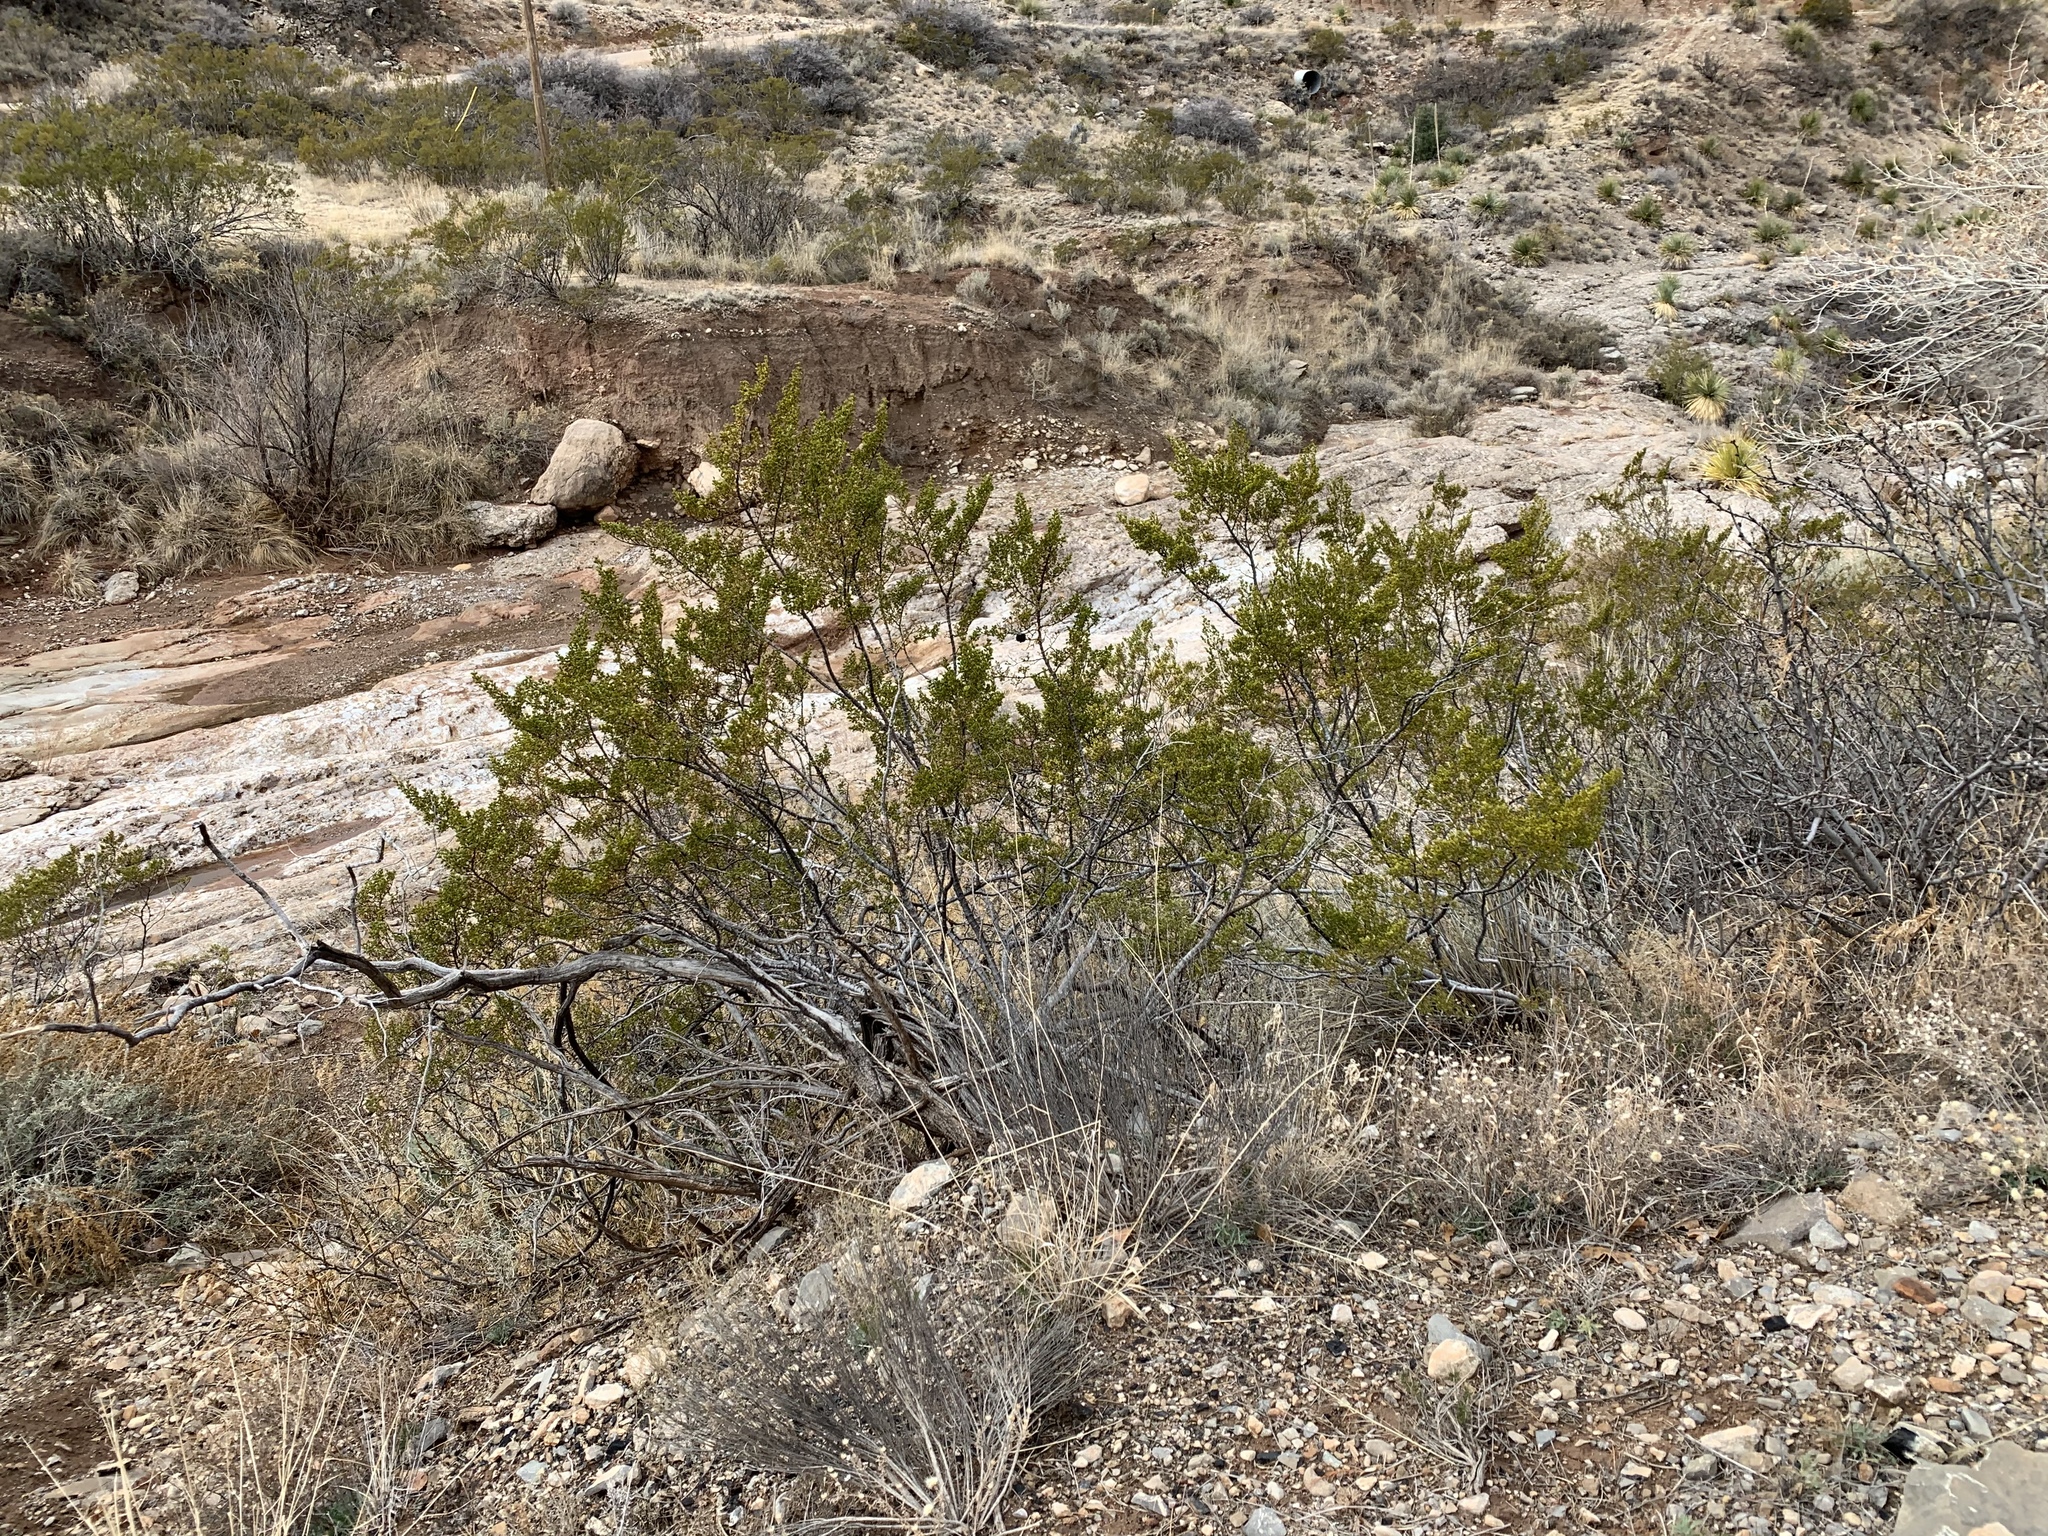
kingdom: Plantae
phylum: Tracheophyta
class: Magnoliopsida
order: Zygophyllales
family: Zygophyllaceae
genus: Larrea
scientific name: Larrea tridentata
